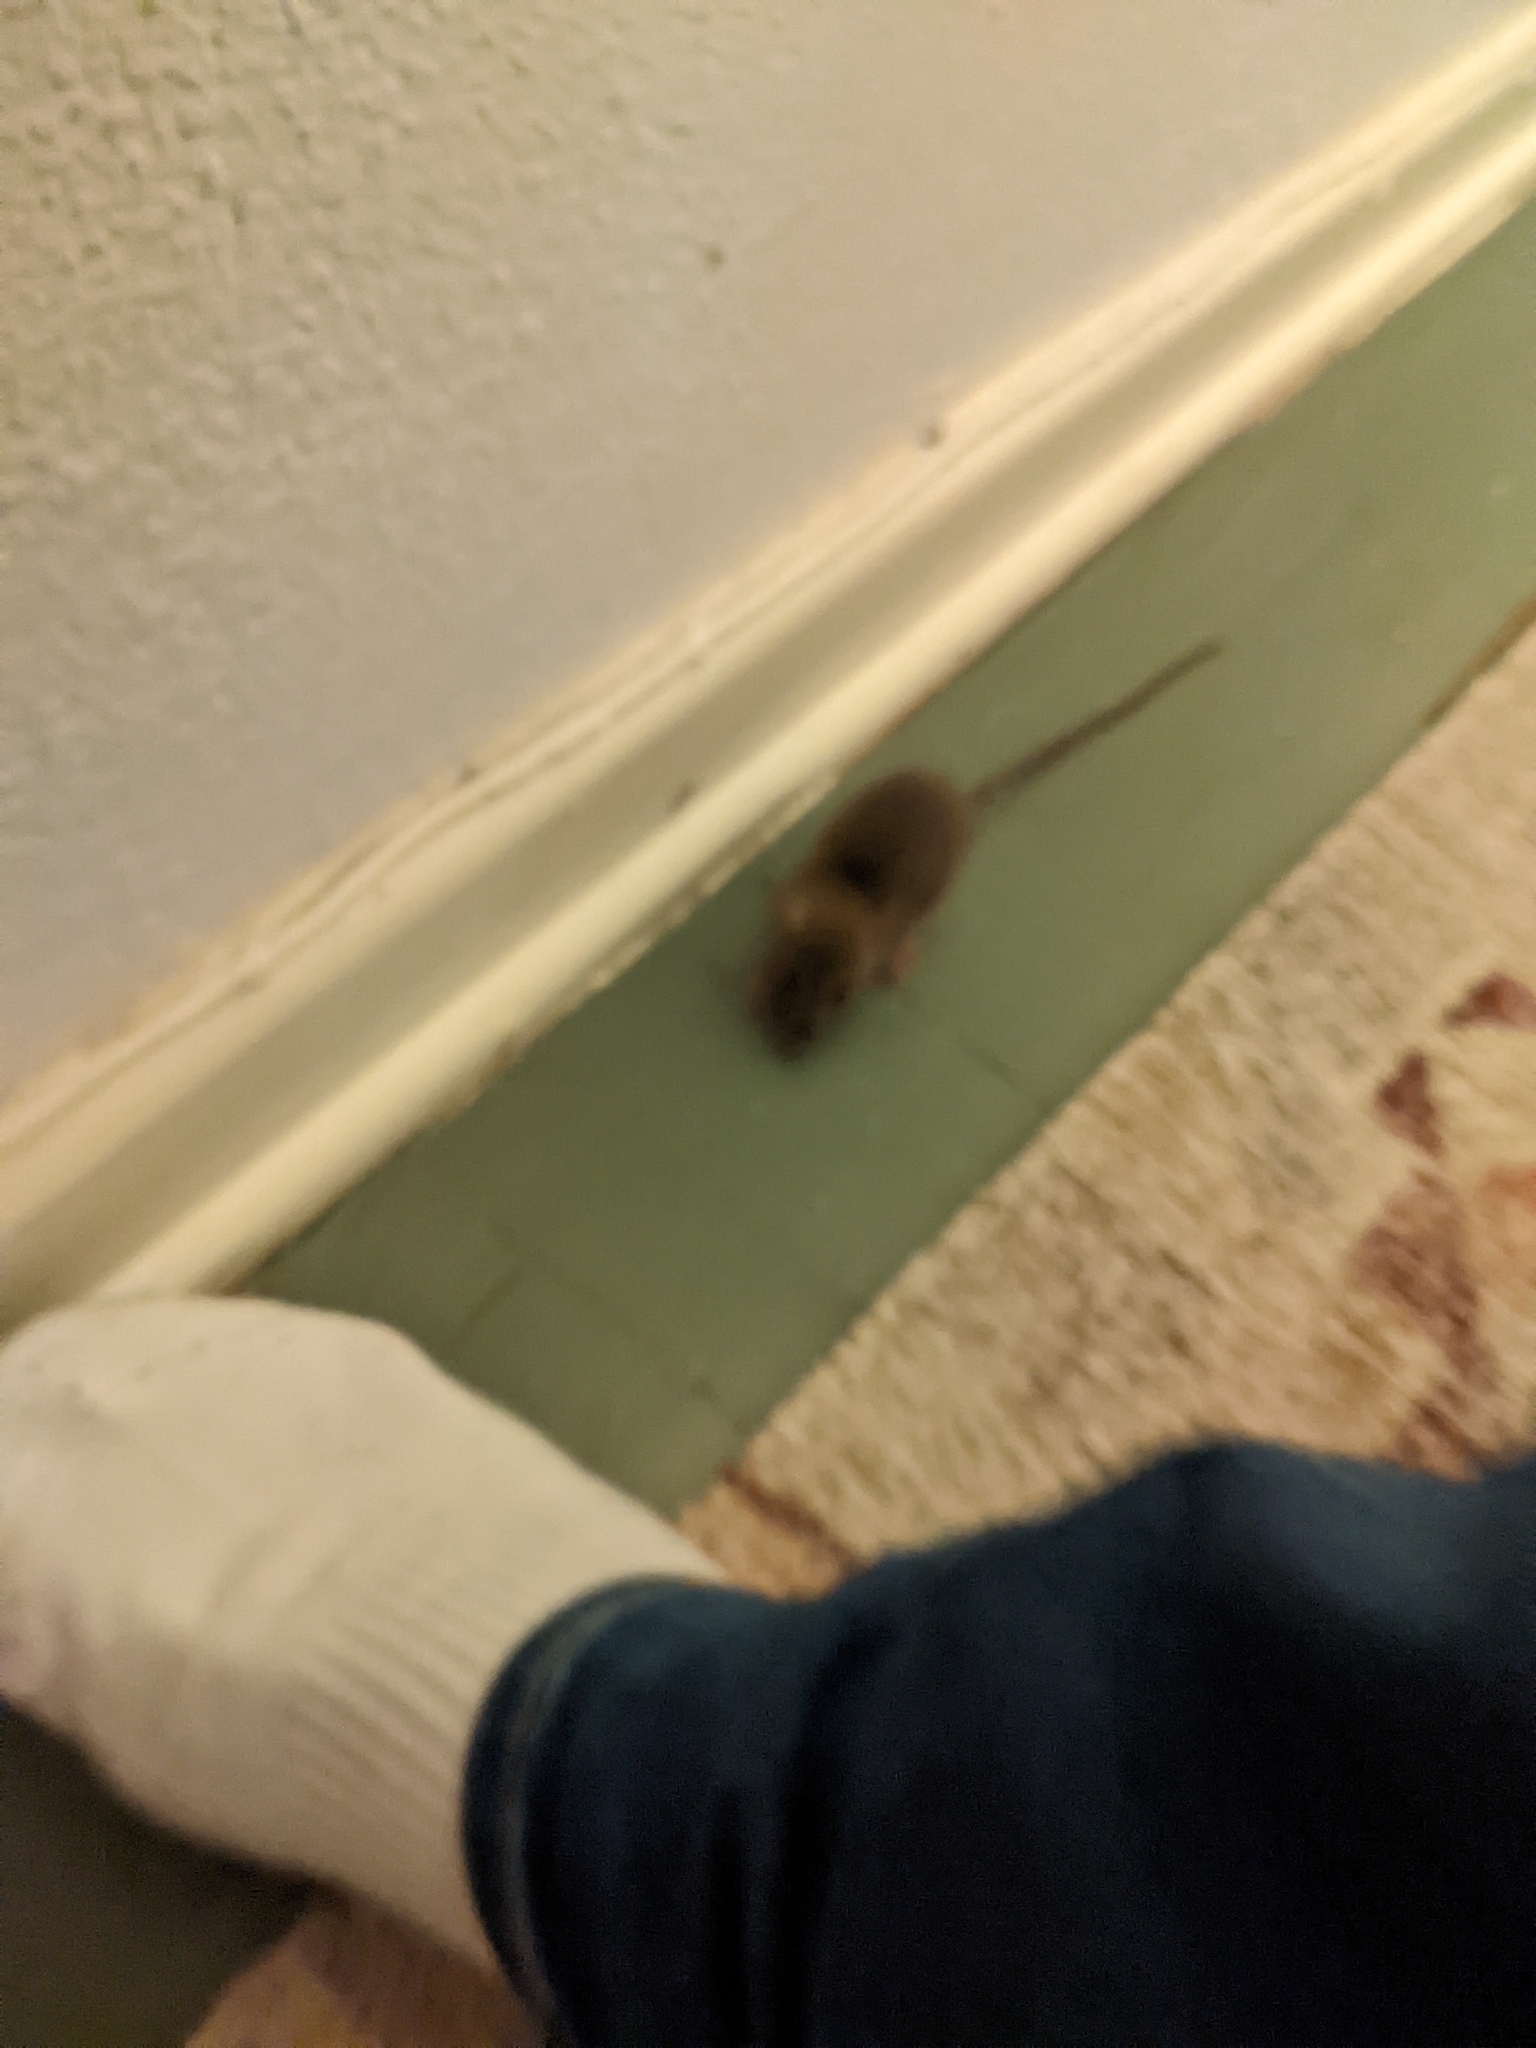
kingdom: Animalia
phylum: Chordata
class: Mammalia
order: Rodentia
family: Muridae
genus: Mus
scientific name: Mus musculus
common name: House mouse
